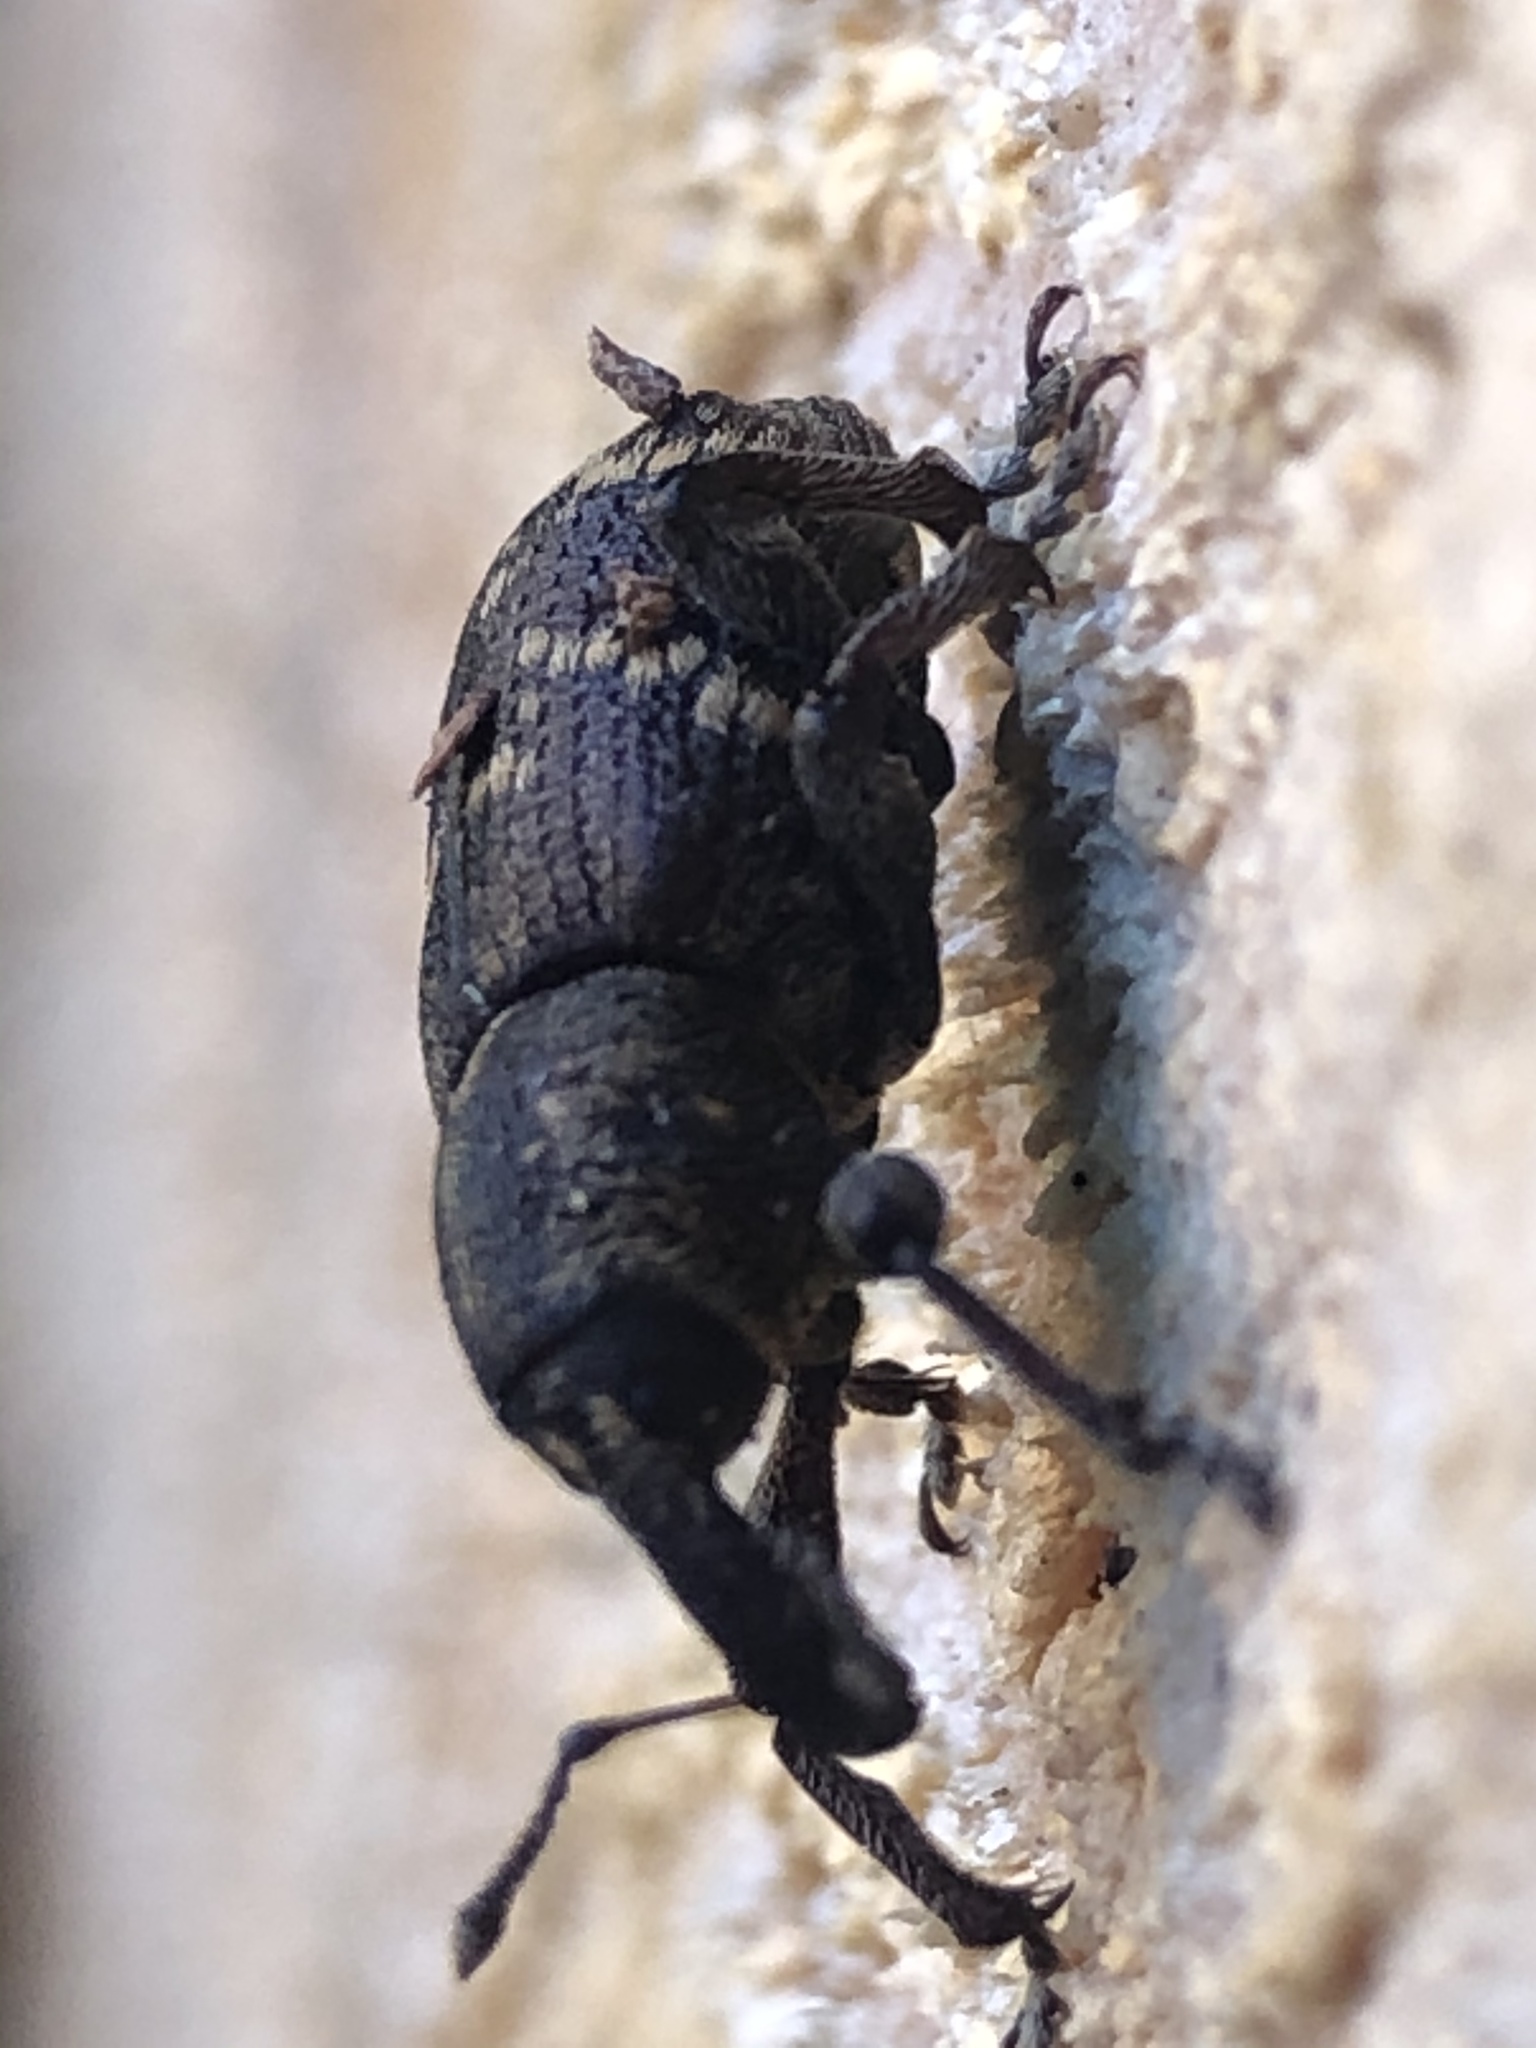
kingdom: Animalia
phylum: Arthropoda
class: Insecta
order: Coleoptera
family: Curculionidae
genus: Hylobius
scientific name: Hylobius abietis
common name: Large pine weevil
